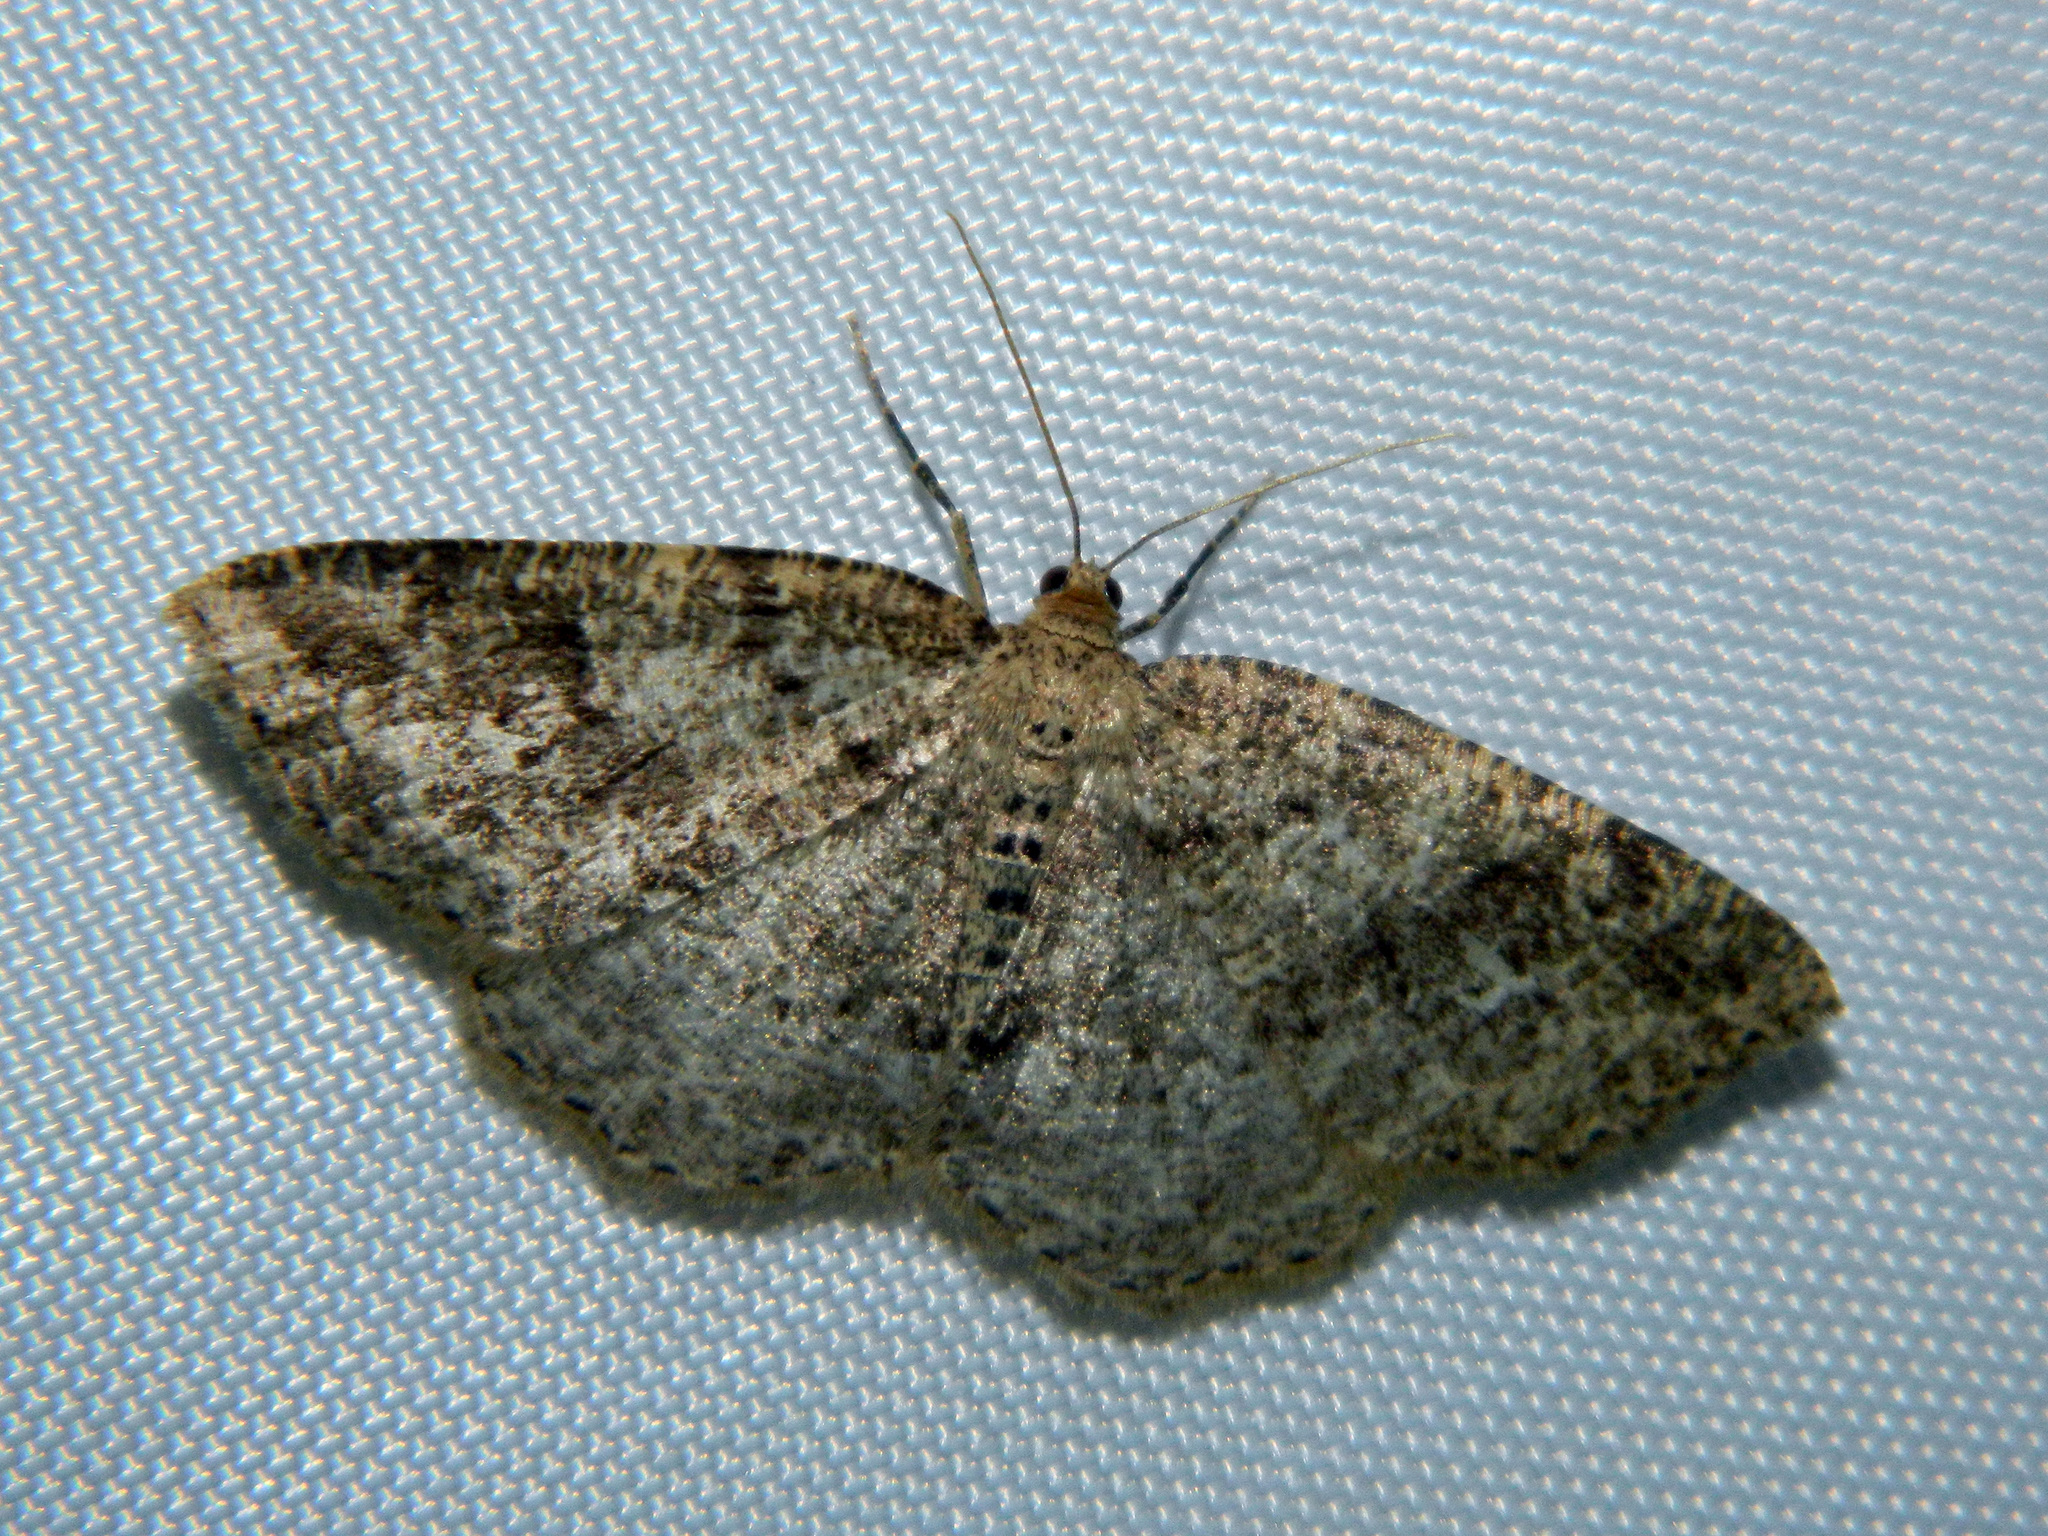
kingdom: Animalia
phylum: Arthropoda
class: Insecta
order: Lepidoptera
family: Geometridae
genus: Homochlodes
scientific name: Homochlodes fritillaria
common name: Pale homochlodes
